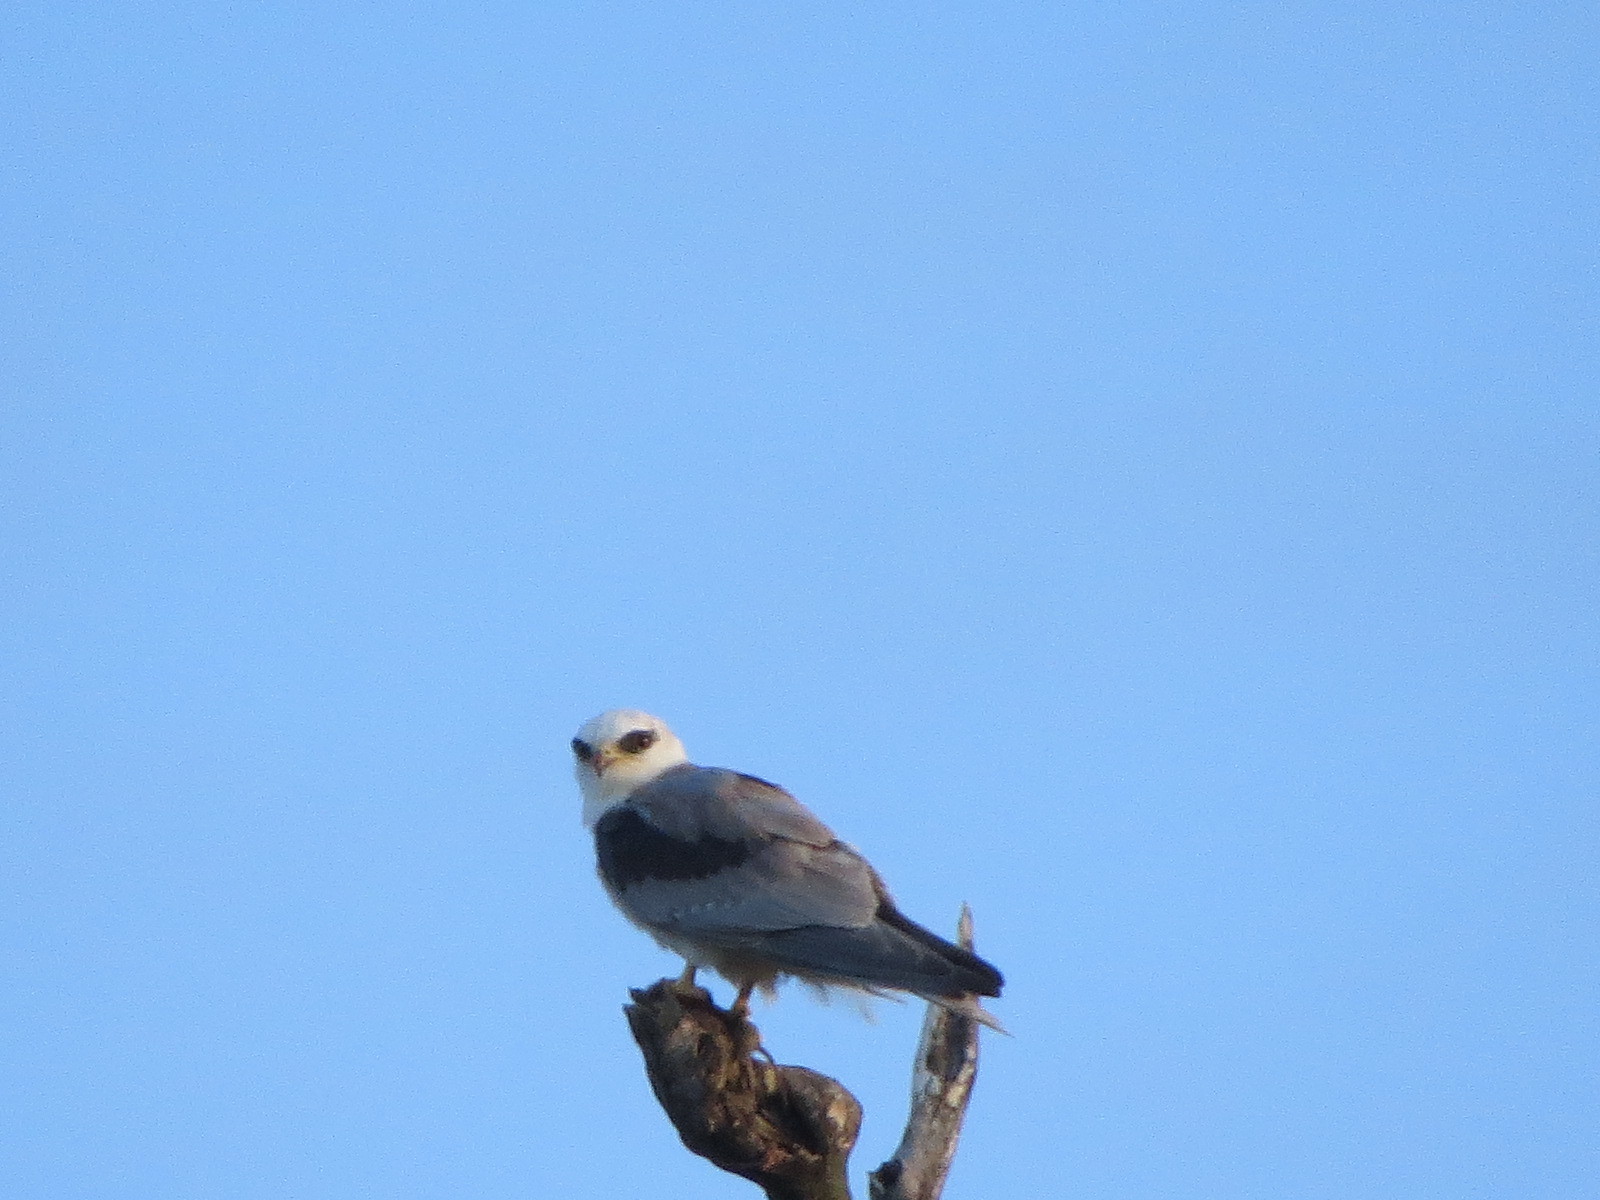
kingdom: Animalia
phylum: Chordata
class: Aves
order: Accipitriformes
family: Accipitridae
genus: Elanus
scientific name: Elanus leucurus
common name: White-tailed kite
